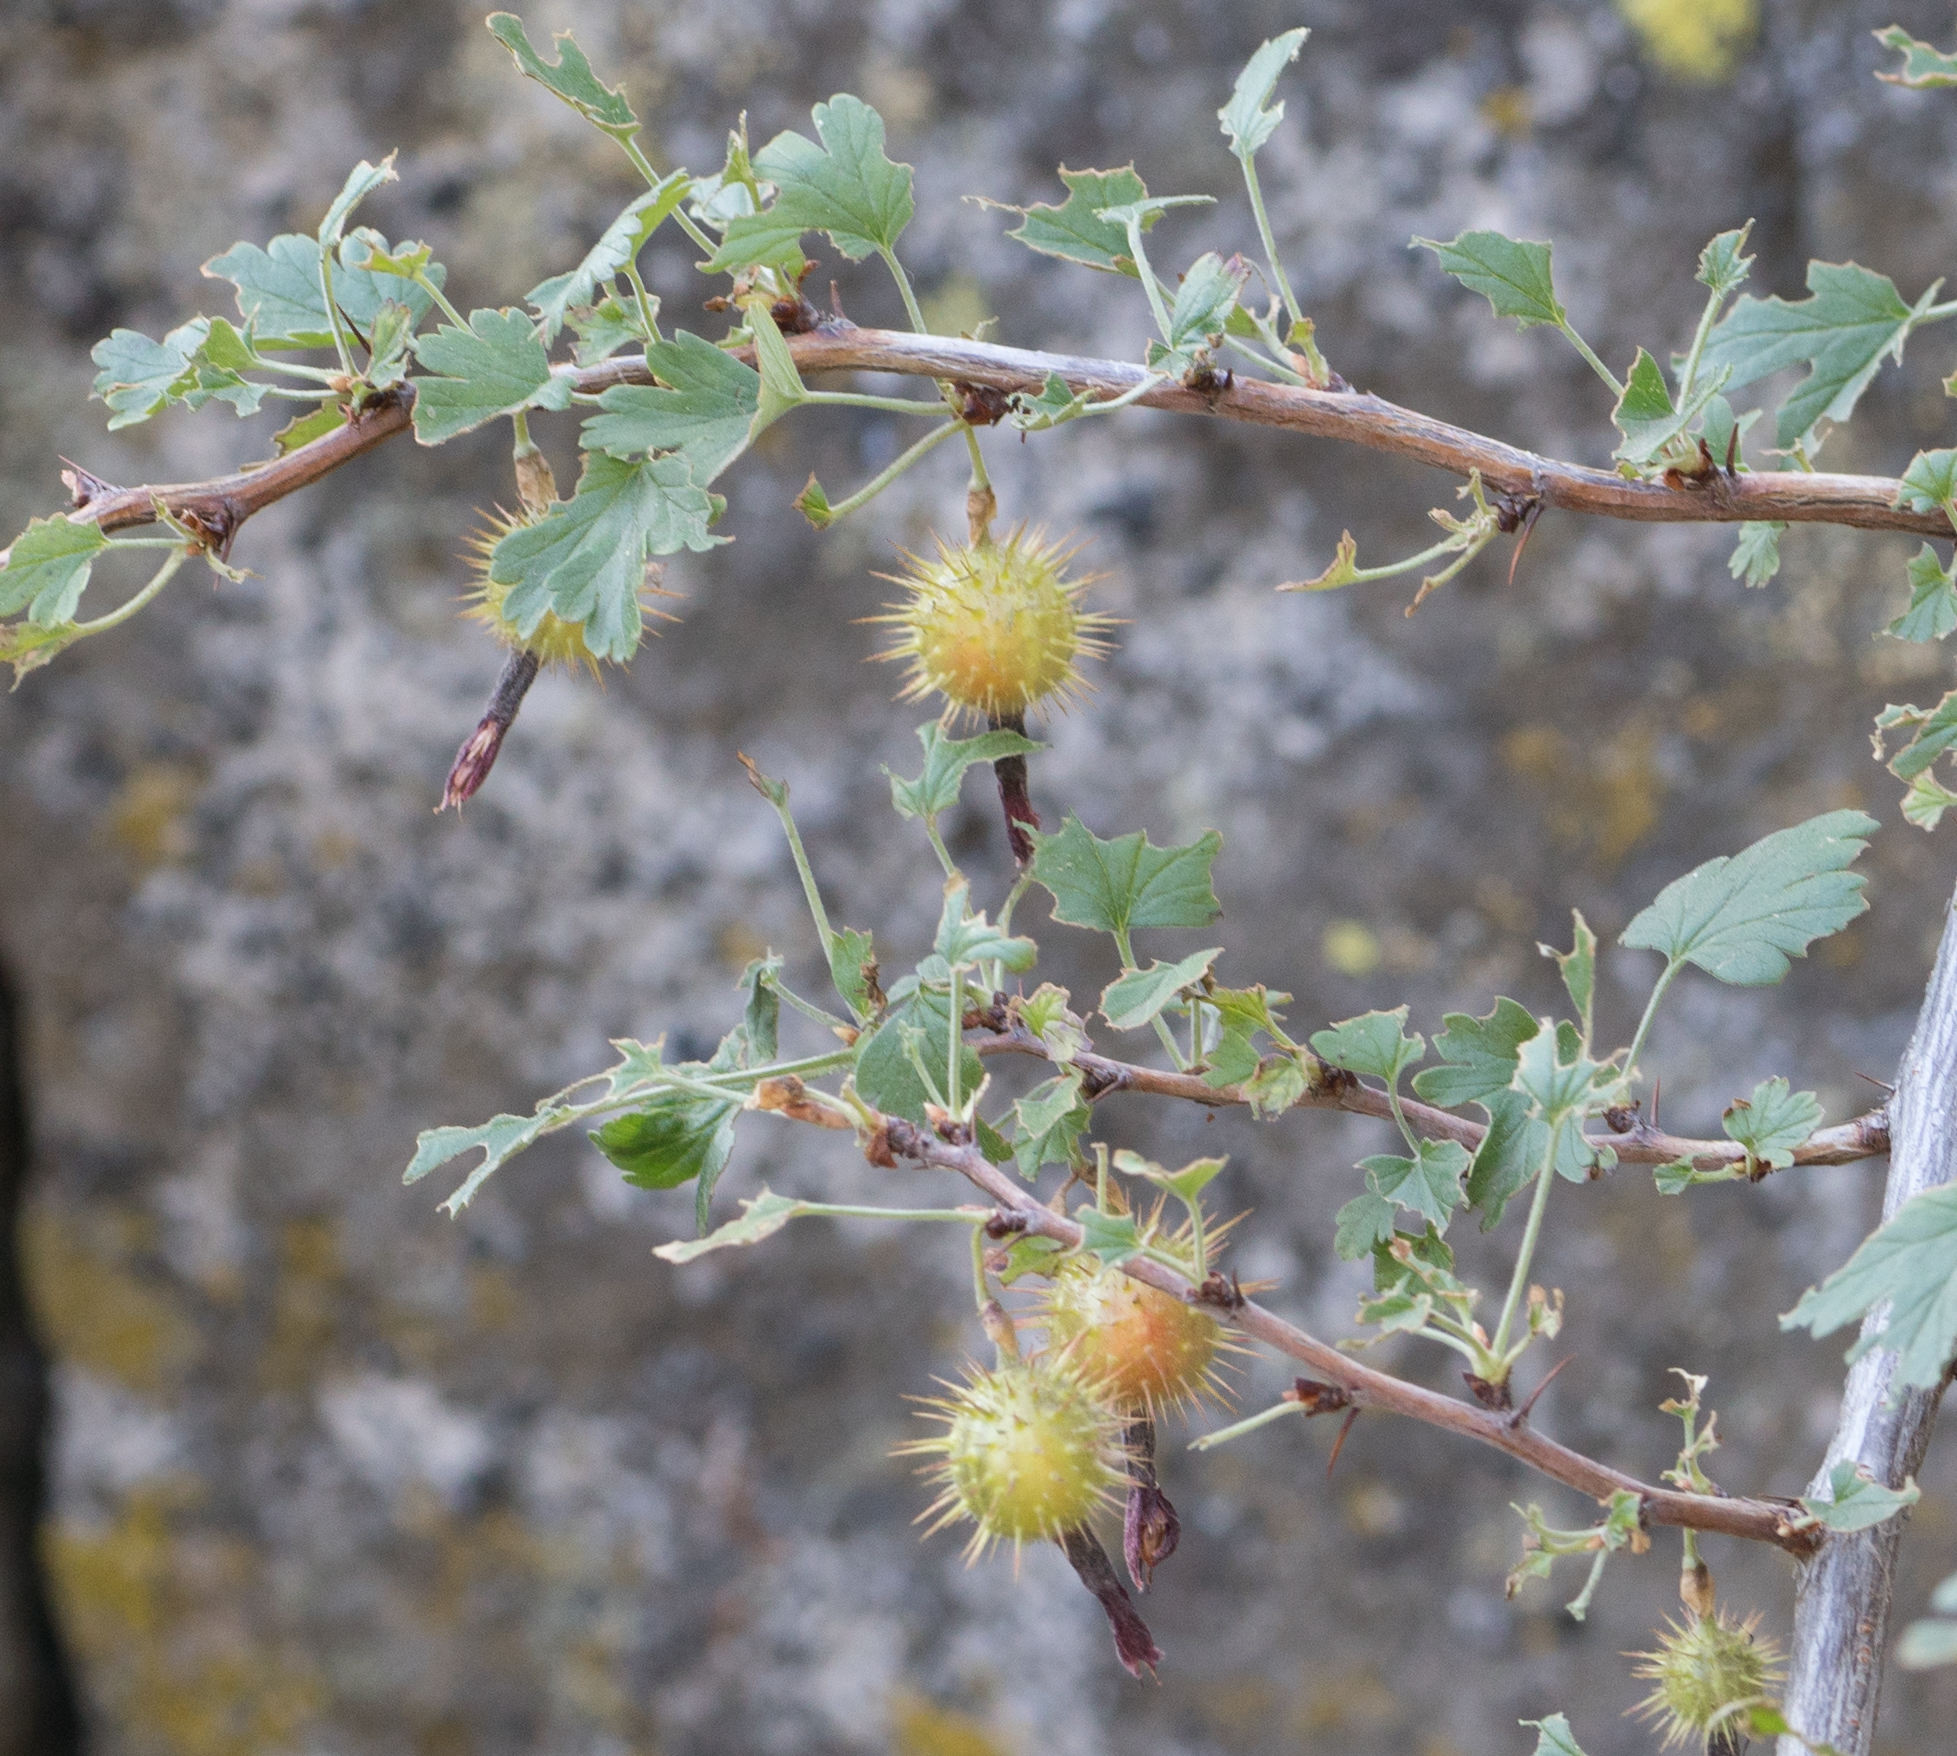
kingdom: Plantae
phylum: Tracheophyta
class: Magnoliopsida
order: Saxifragales
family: Grossulariaceae
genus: Ribes
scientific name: Ribes roezlii
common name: Sierra gooseberry
